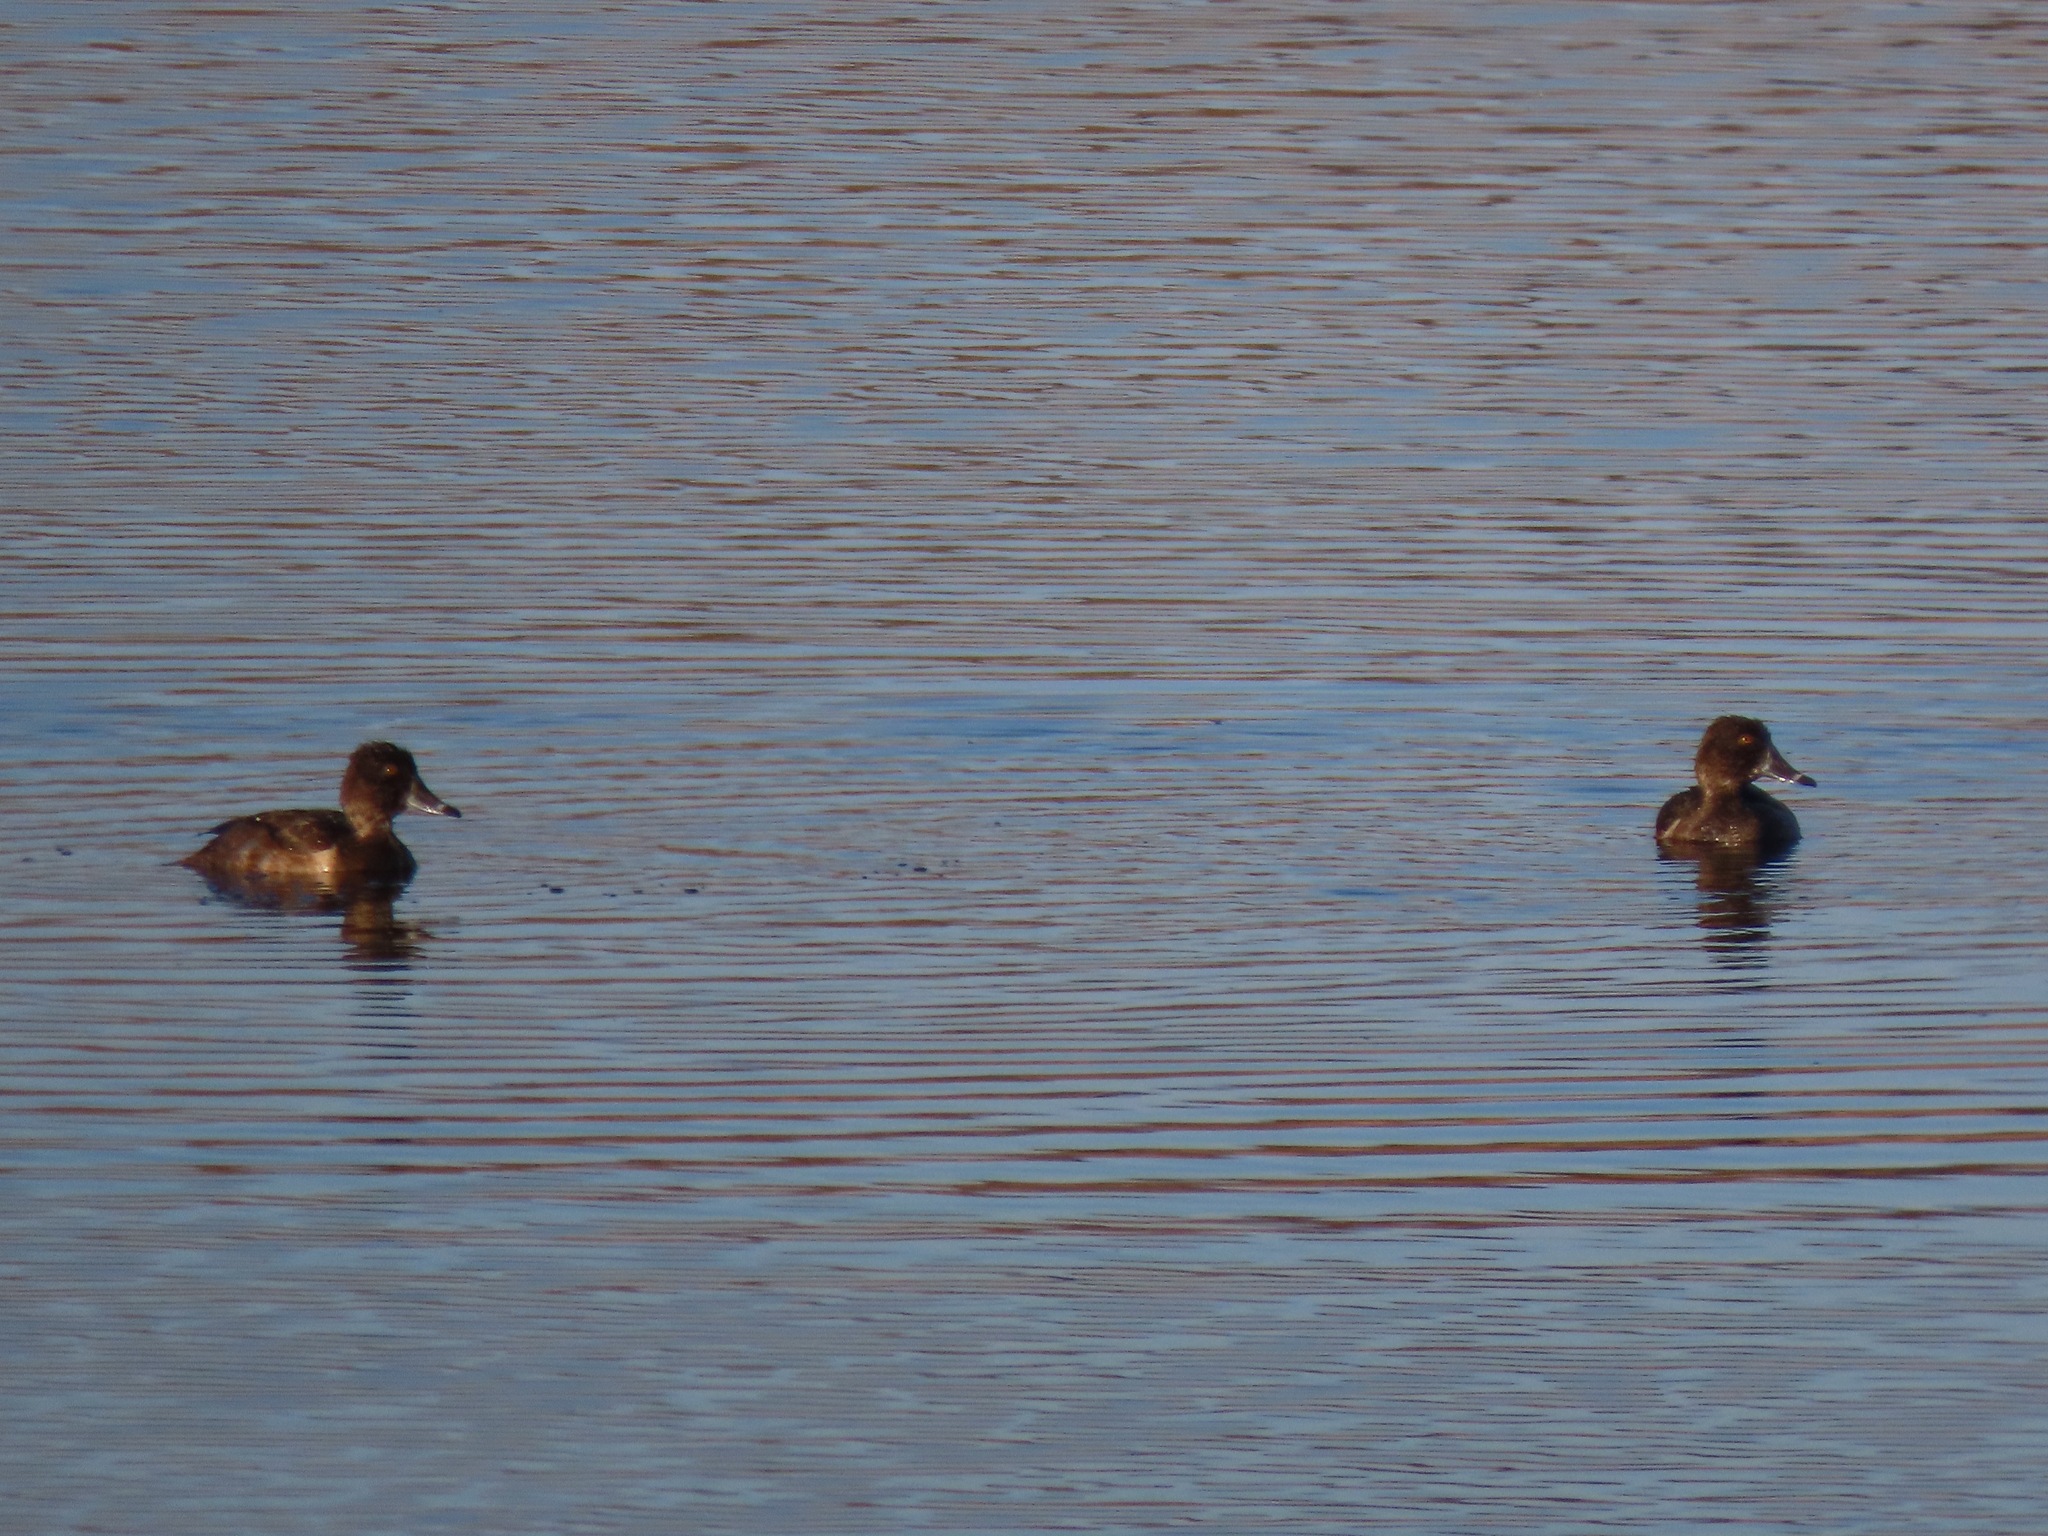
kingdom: Animalia
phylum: Chordata
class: Aves
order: Anseriformes
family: Anatidae
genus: Aythya
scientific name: Aythya collaris
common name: Ring-necked duck
